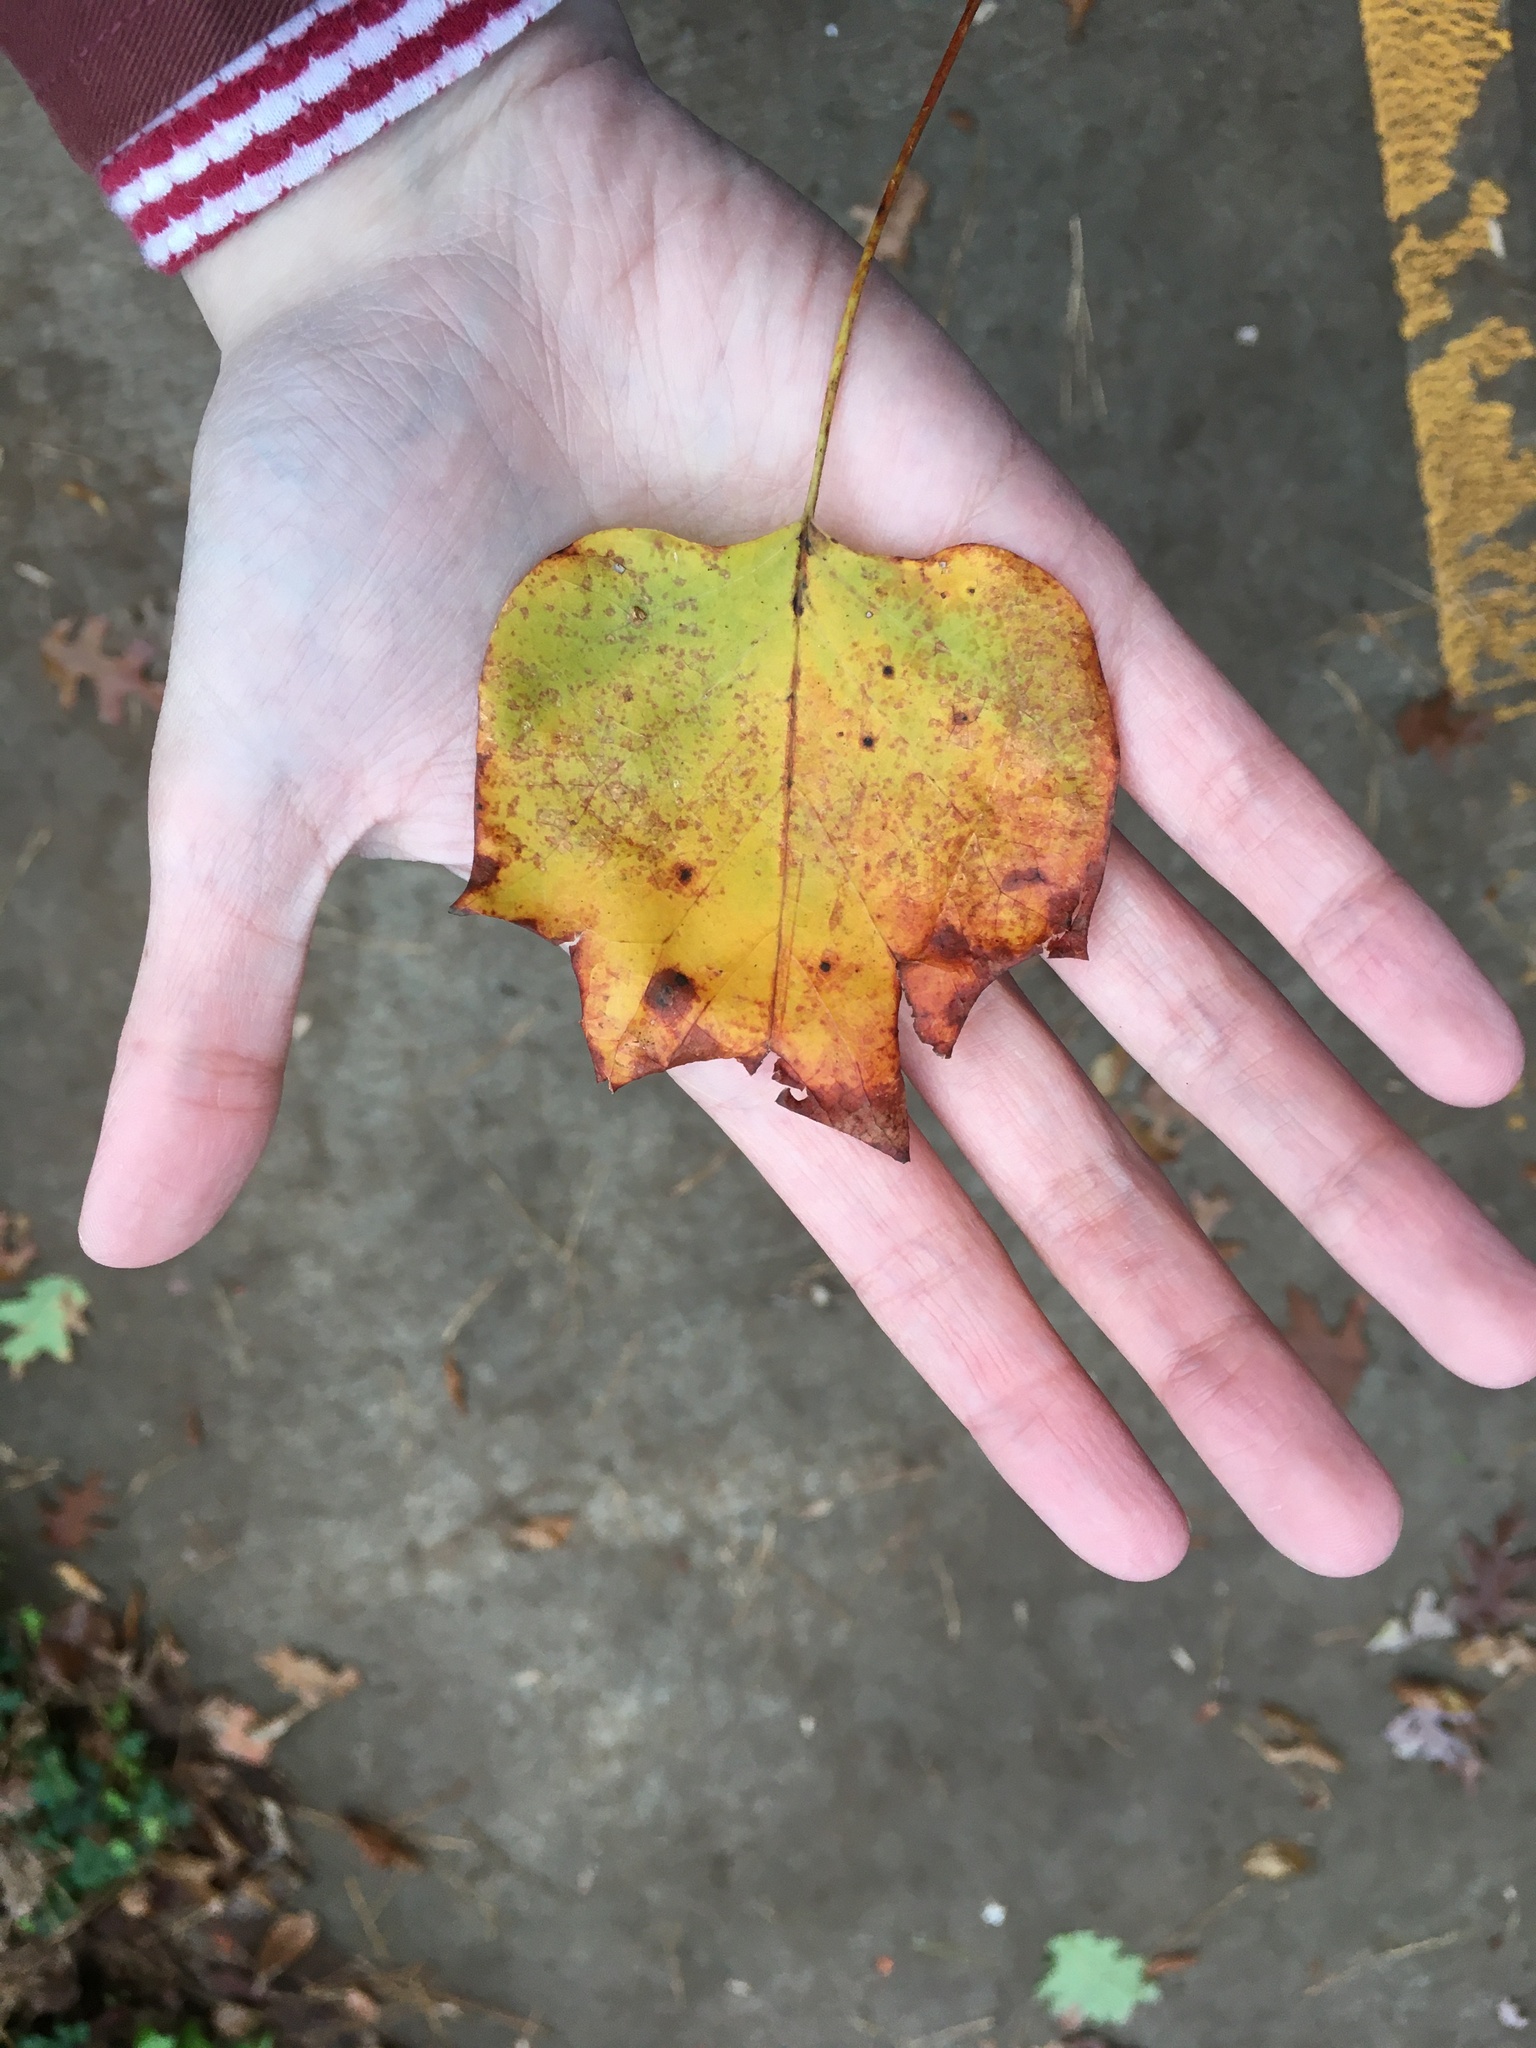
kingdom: Plantae
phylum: Tracheophyta
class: Magnoliopsida
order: Magnoliales
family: Magnoliaceae
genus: Liriodendron
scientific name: Liriodendron tulipifera
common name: Tulip tree
